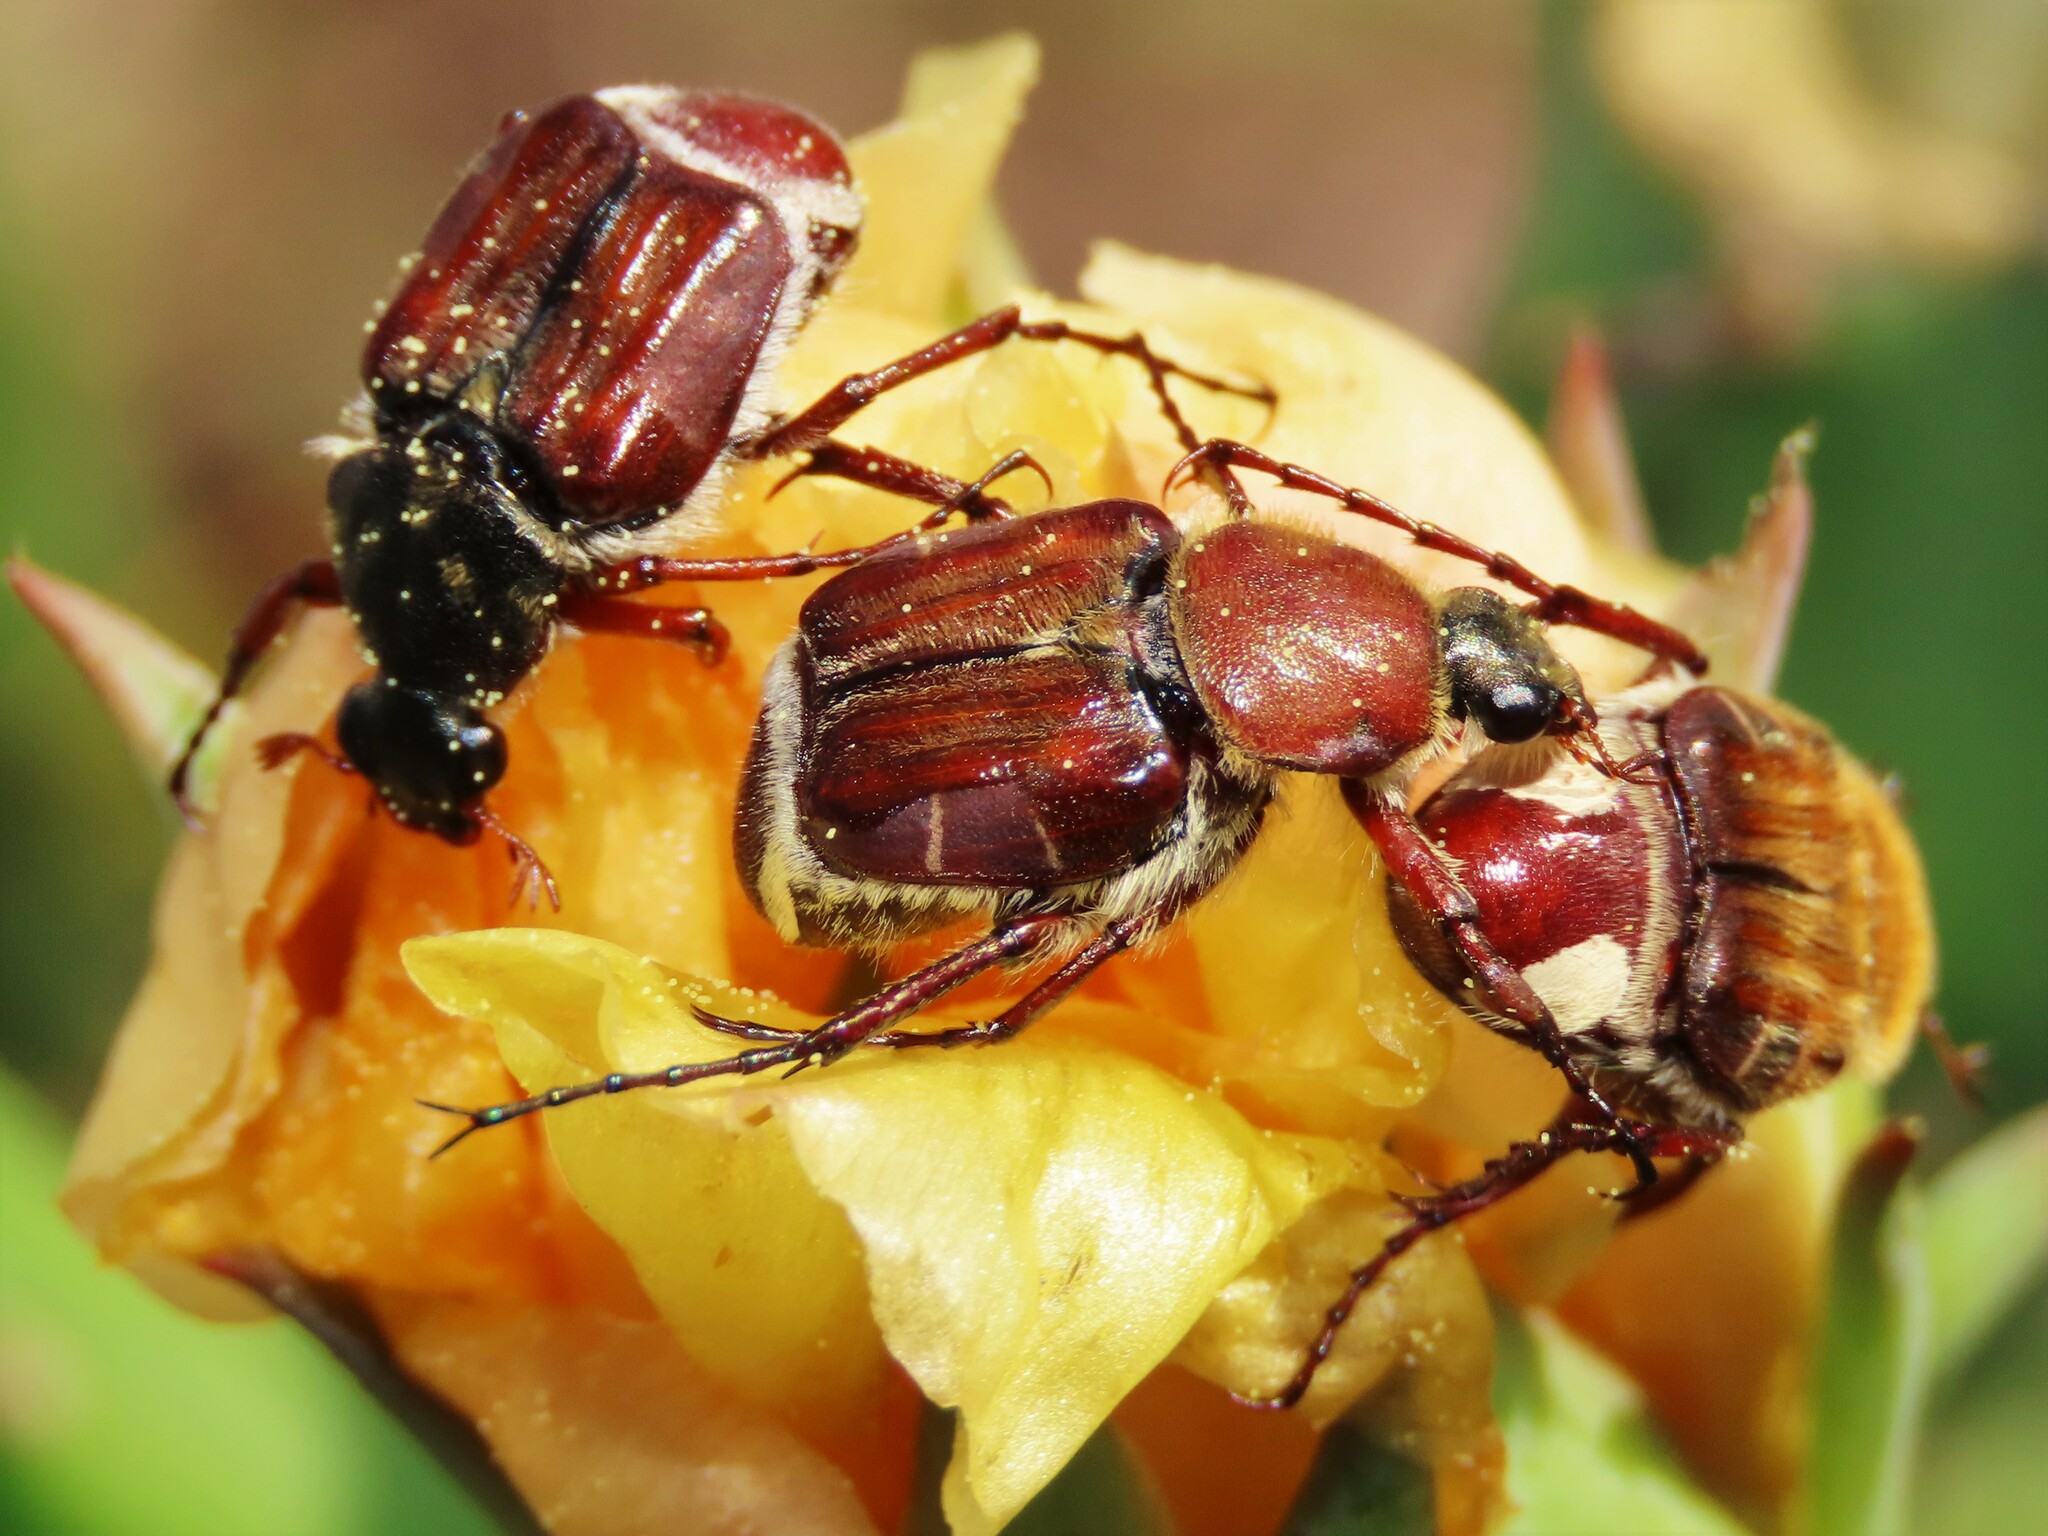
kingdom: Animalia
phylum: Arthropoda
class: Insecta
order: Coleoptera
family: Scarabaeidae
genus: Trichiotinus
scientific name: Trichiotinus rufobrunneus
